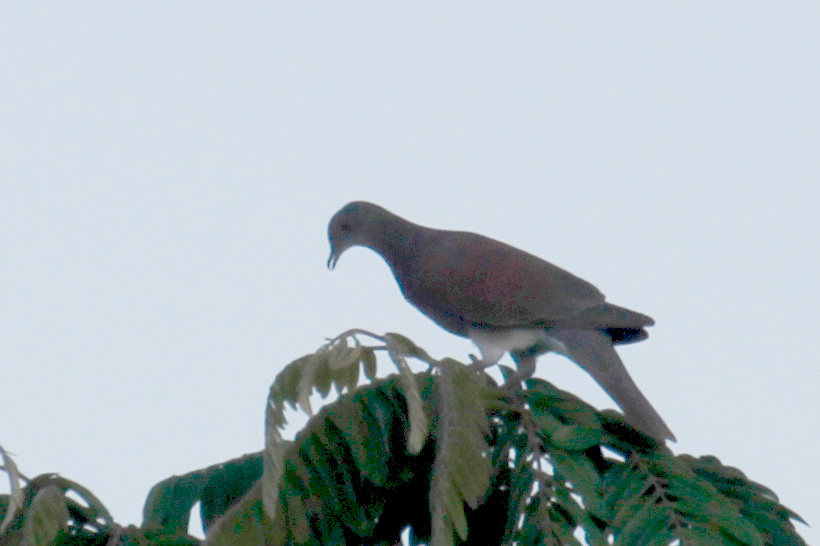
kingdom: Animalia
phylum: Chordata
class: Aves
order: Columbiformes
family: Columbidae
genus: Patagioenas
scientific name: Patagioenas cayennensis
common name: Pale-vented pigeon
